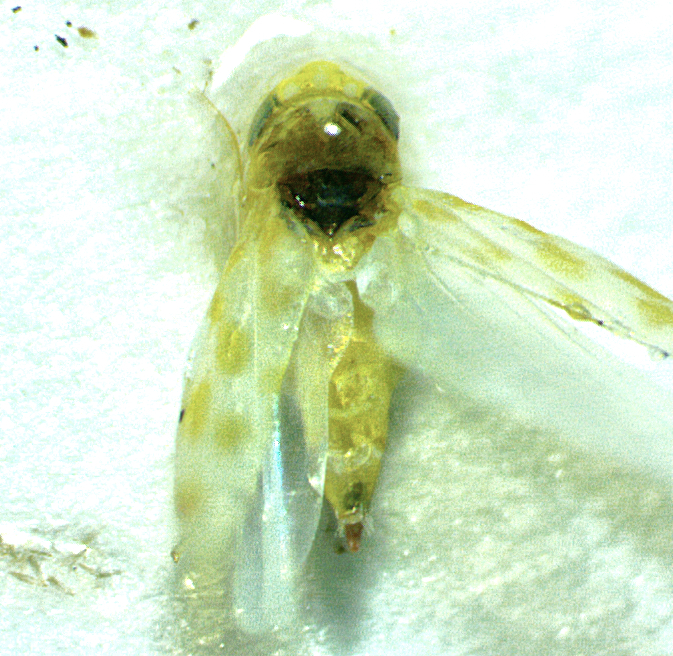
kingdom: Animalia
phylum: Arthropoda
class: Insecta
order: Hemiptera
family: Cicadellidae
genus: Eratoneura
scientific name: Eratoneura ardens
